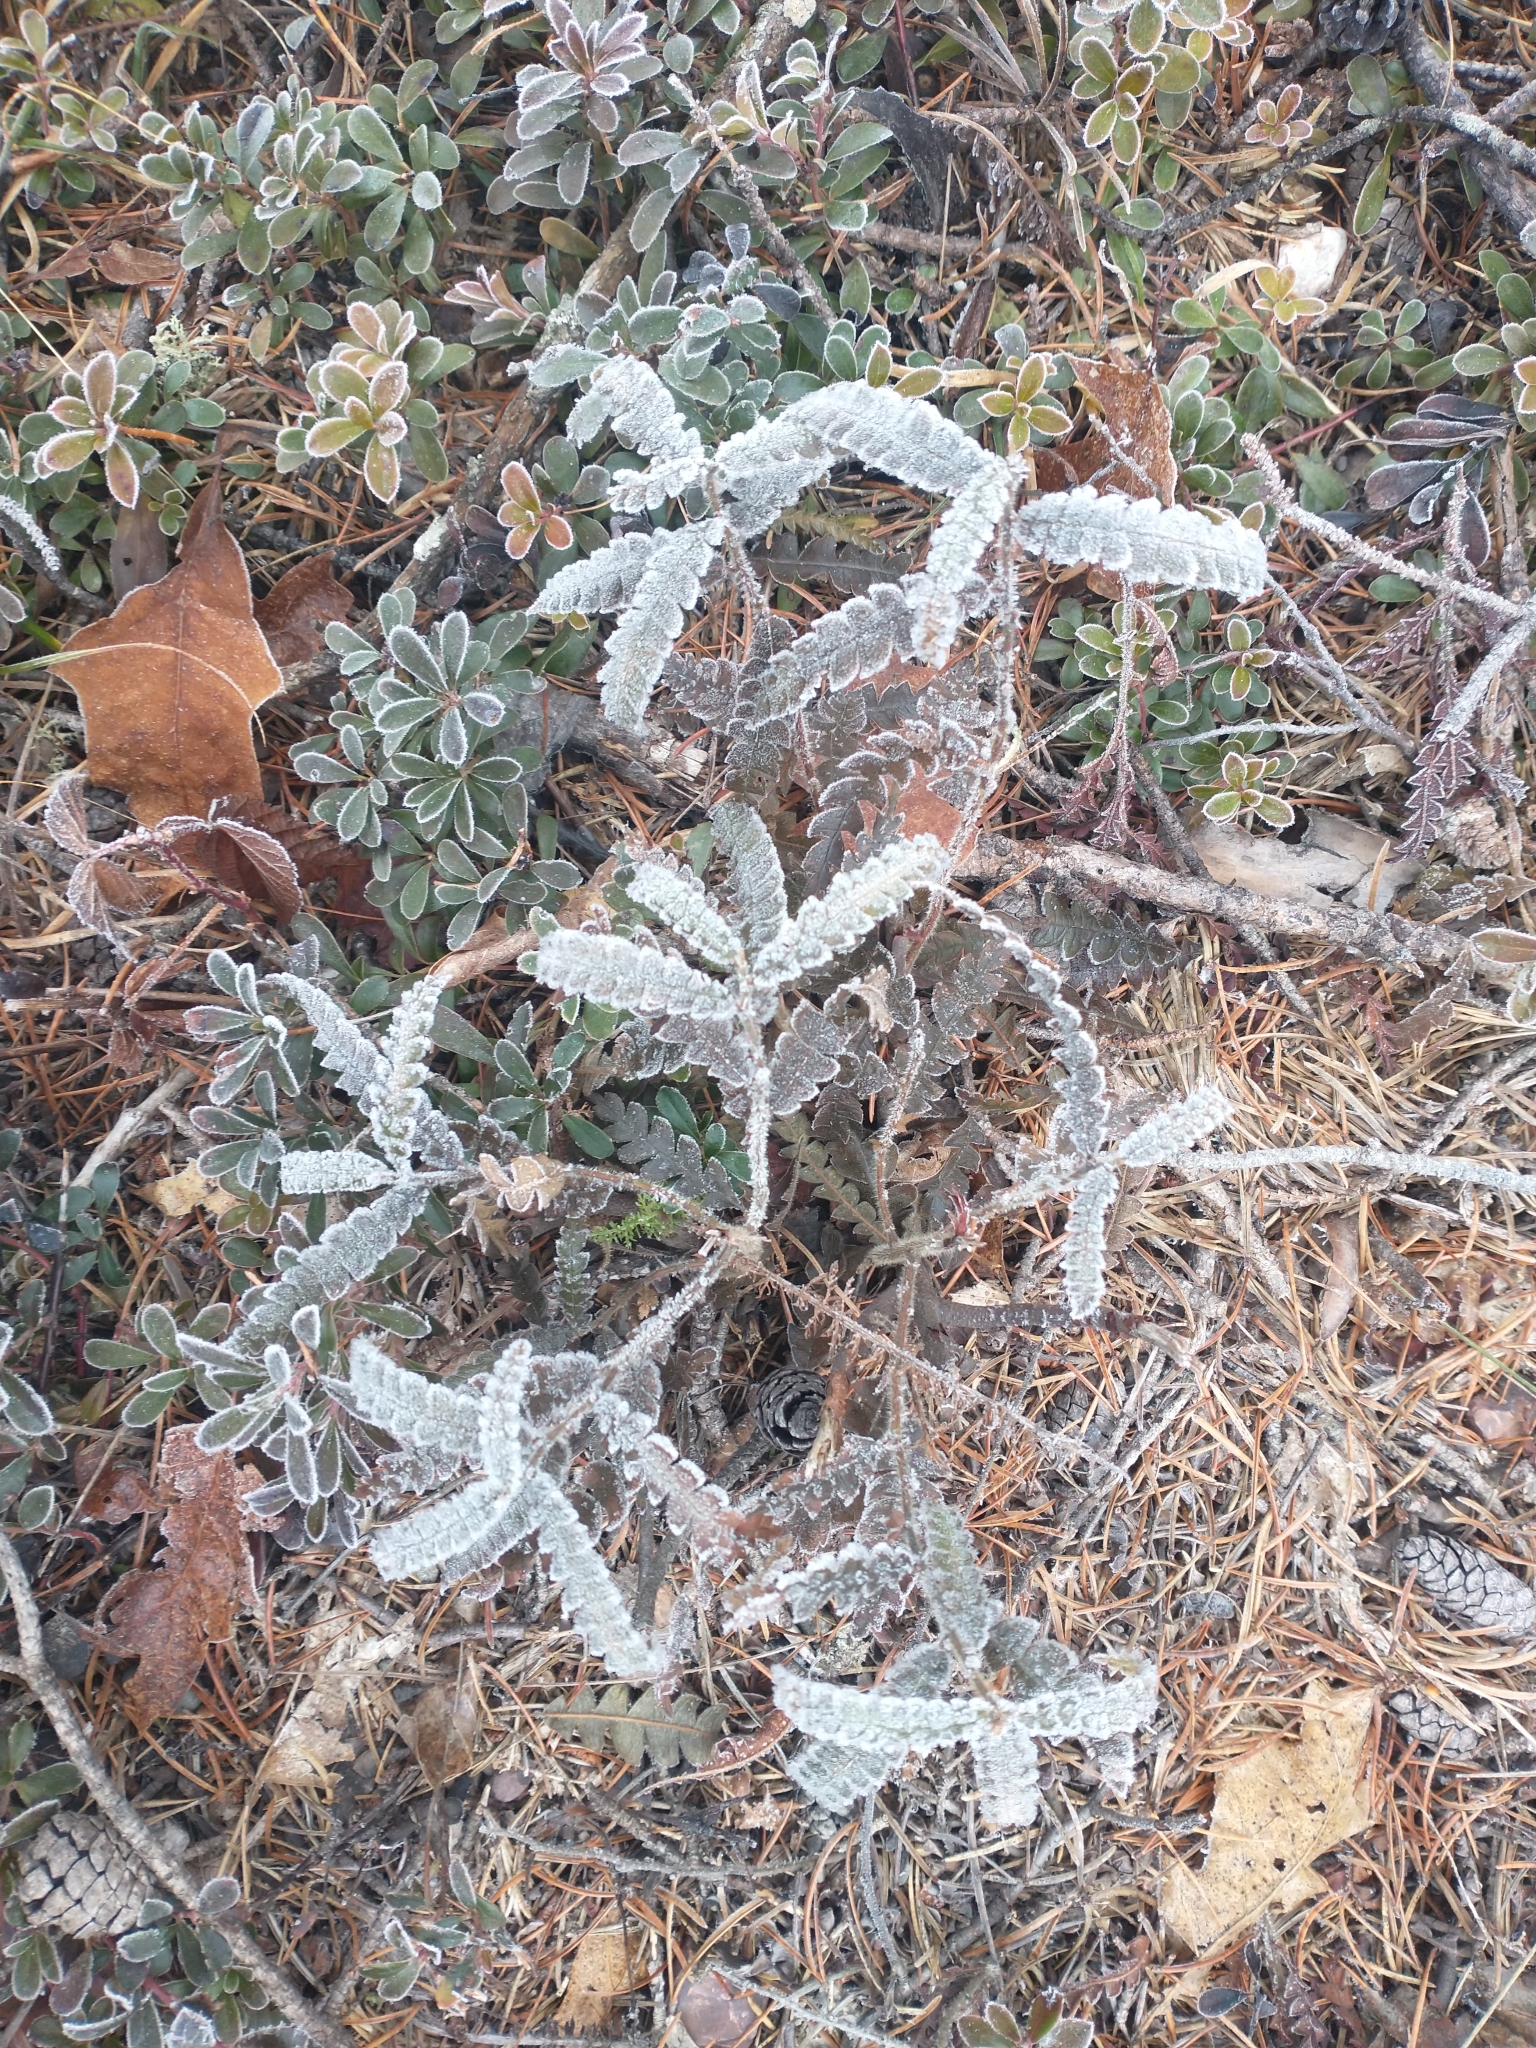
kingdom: Plantae
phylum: Tracheophyta
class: Magnoliopsida
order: Fagales
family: Myricaceae
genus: Comptonia
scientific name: Comptonia peregrina
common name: Sweet-fern
